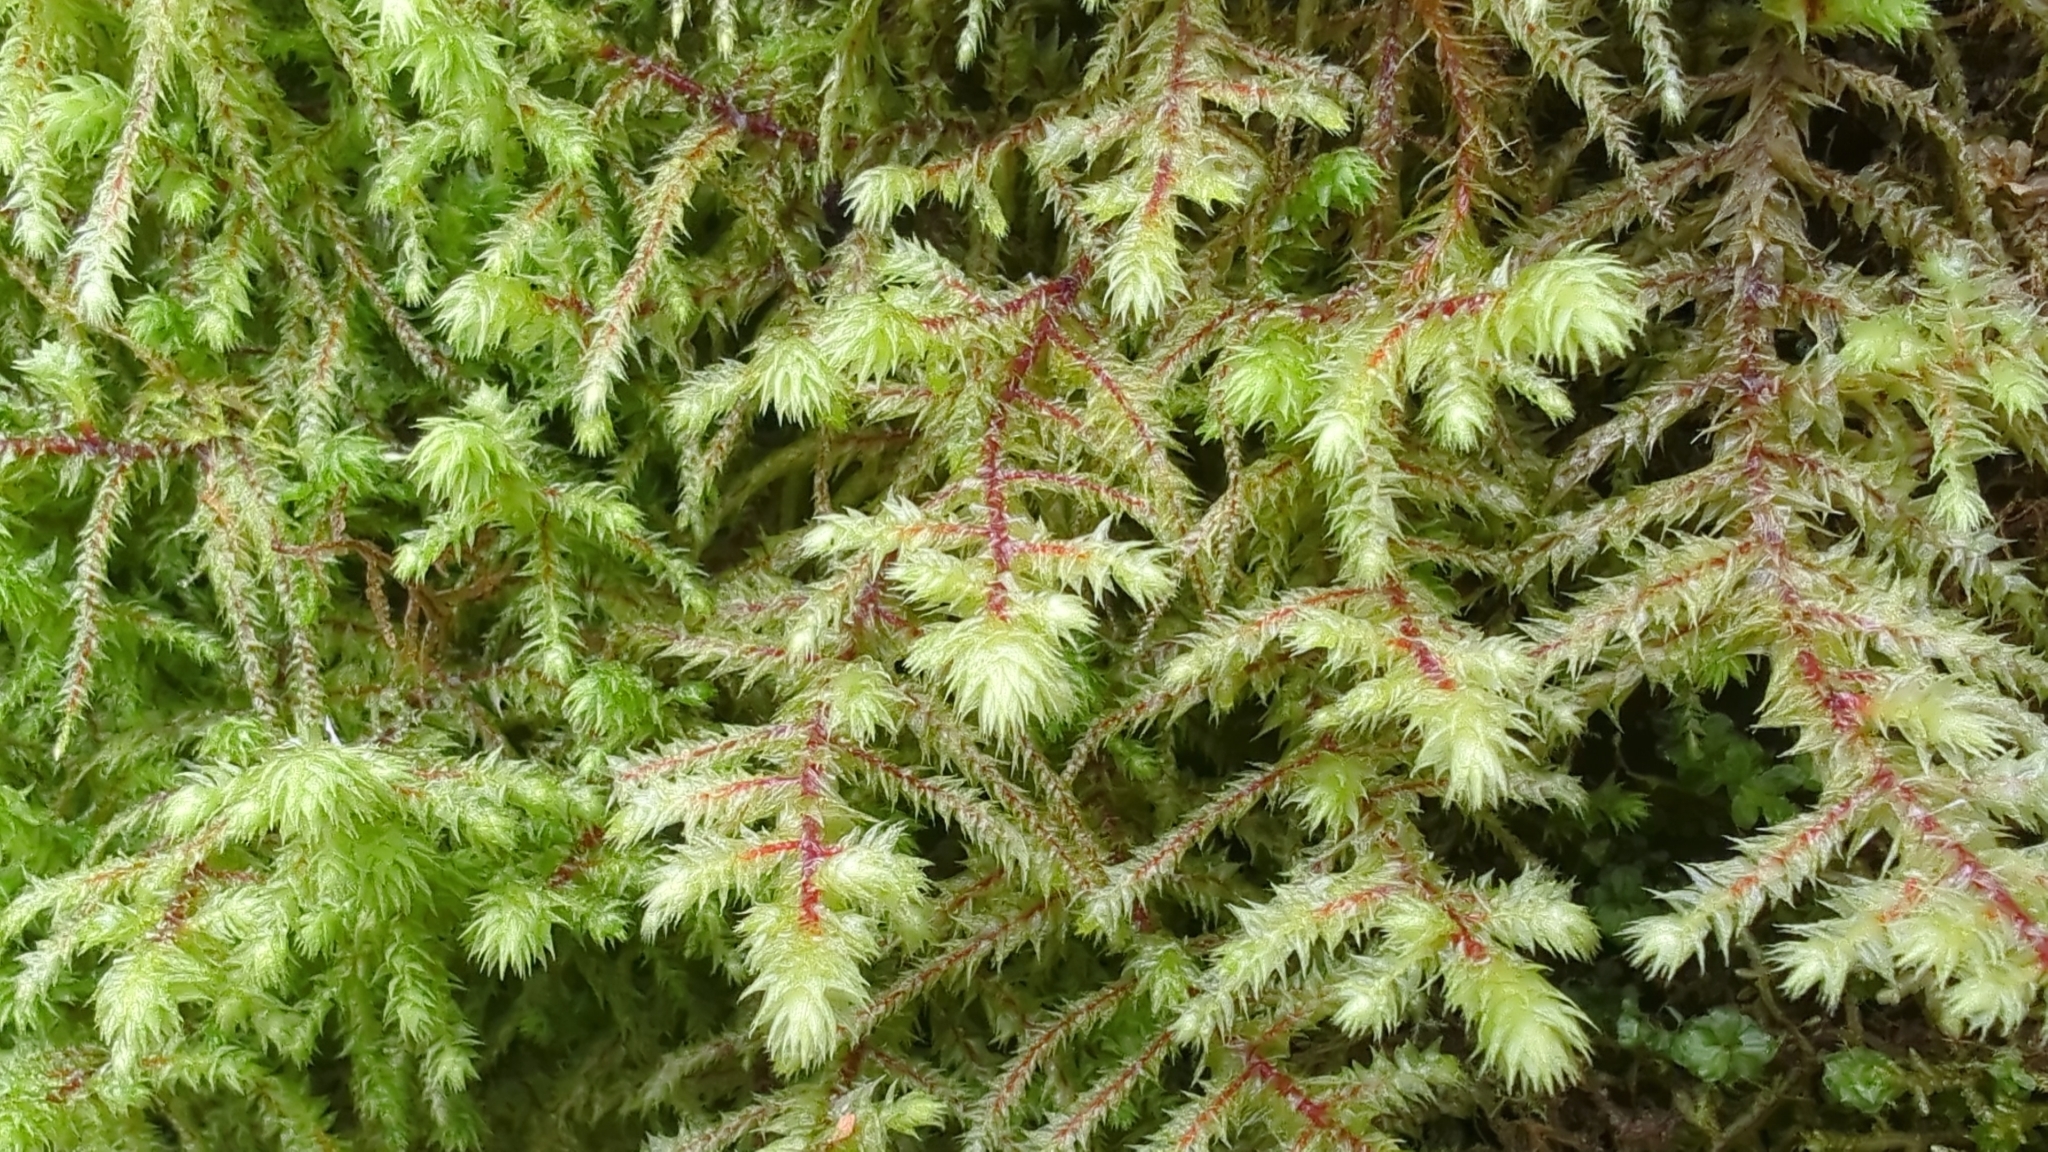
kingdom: Plantae
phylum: Bryophyta
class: Bryopsida
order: Hypnales
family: Hylocomiaceae
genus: Hylocomiadelphus
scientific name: Hylocomiadelphus triquetrus
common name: Rough goose neck moss
